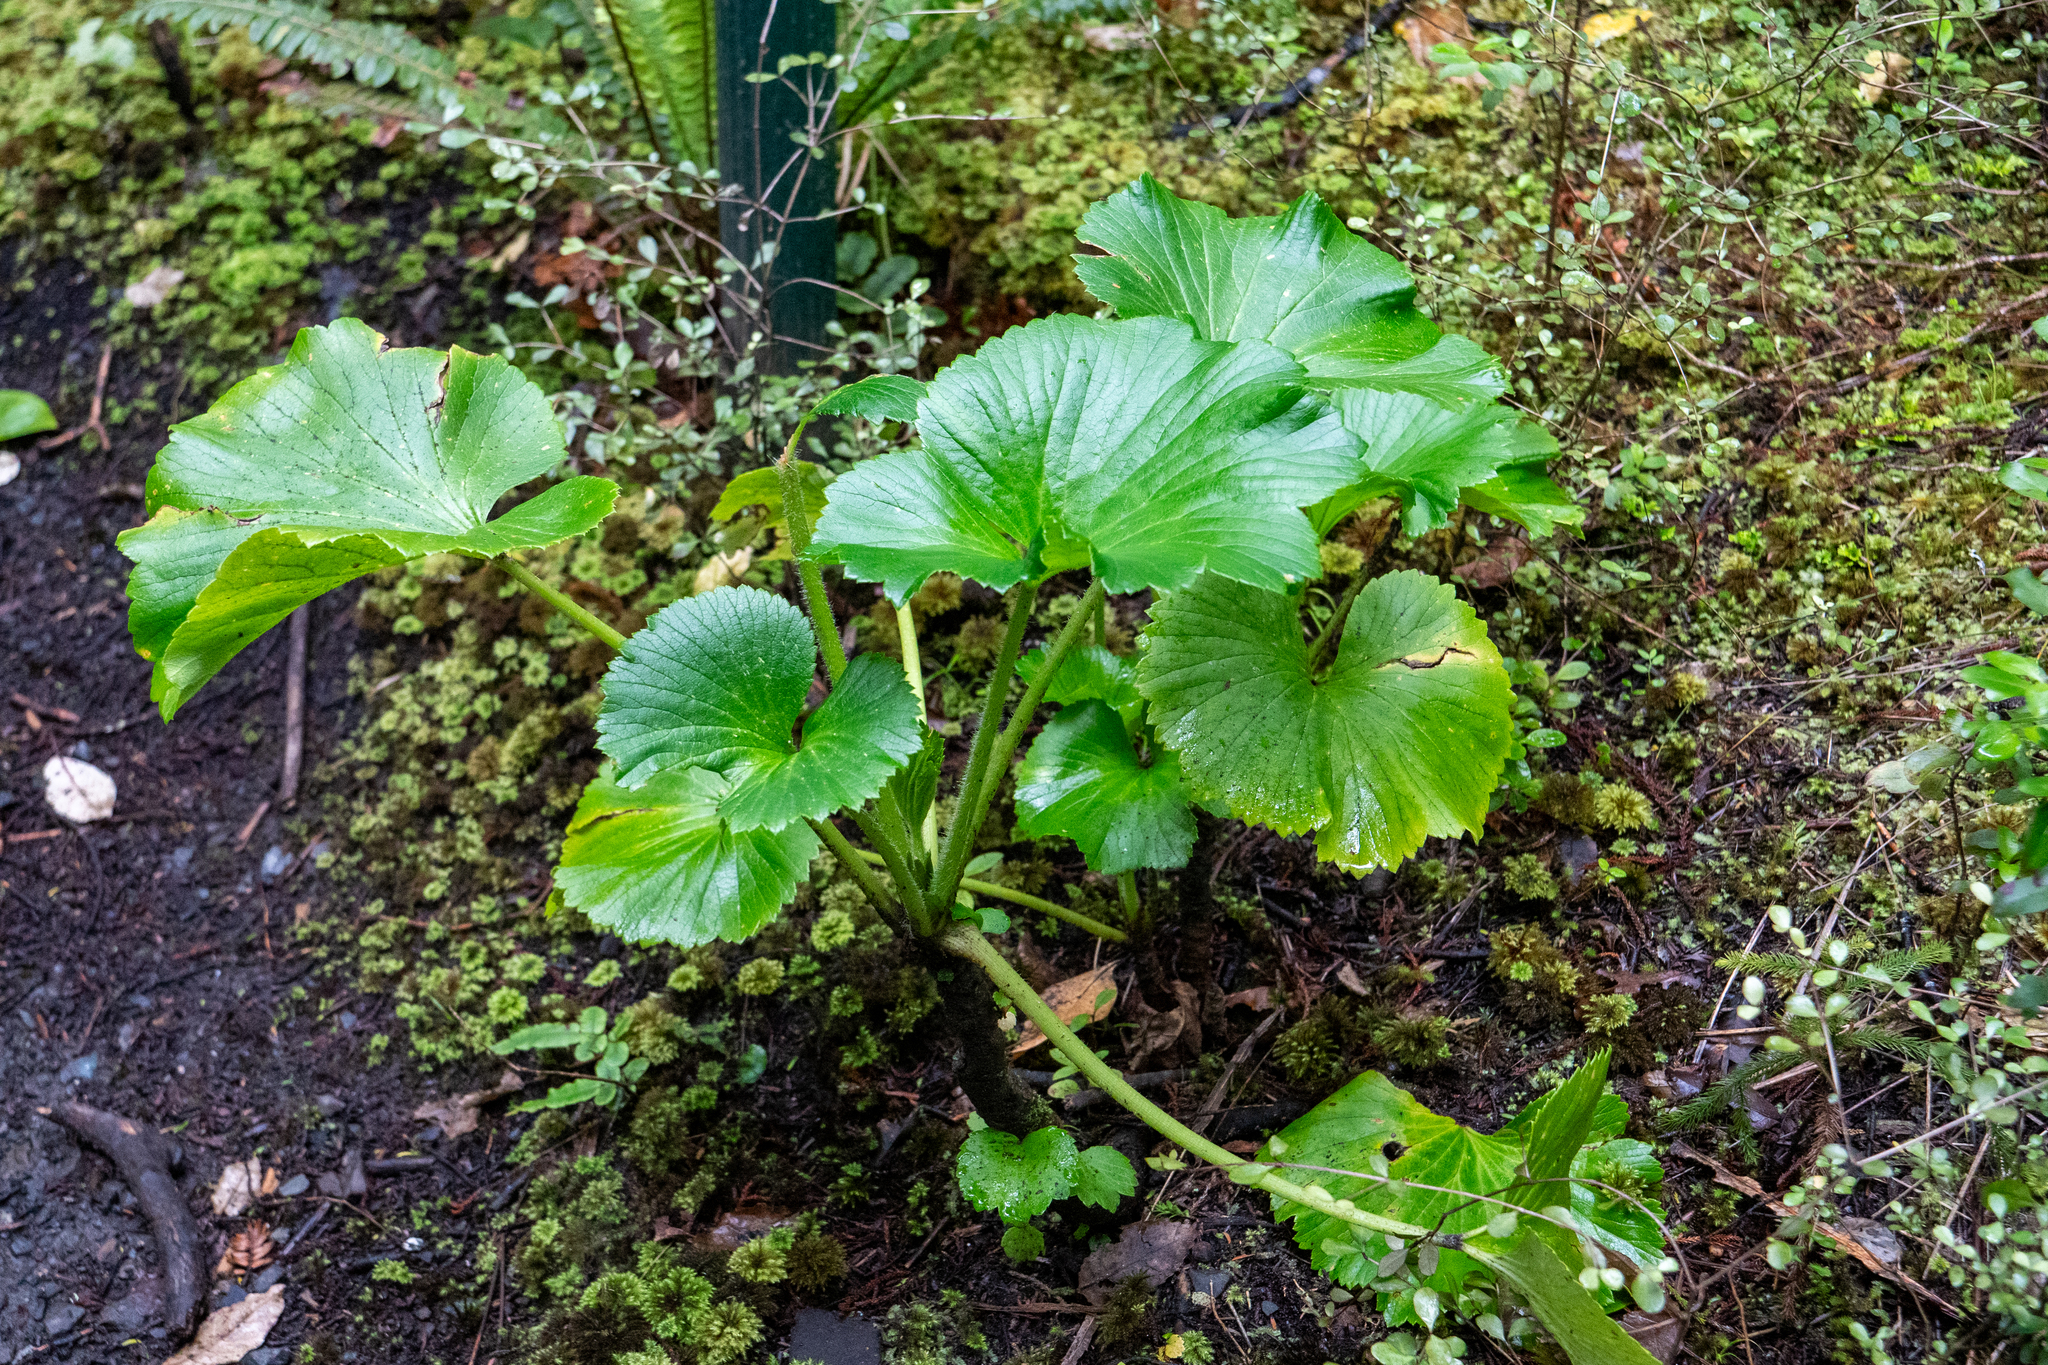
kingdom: Plantae
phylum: Tracheophyta
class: Magnoliopsida
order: Apiales
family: Apiaceae
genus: Azorella
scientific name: Azorella lyallii
